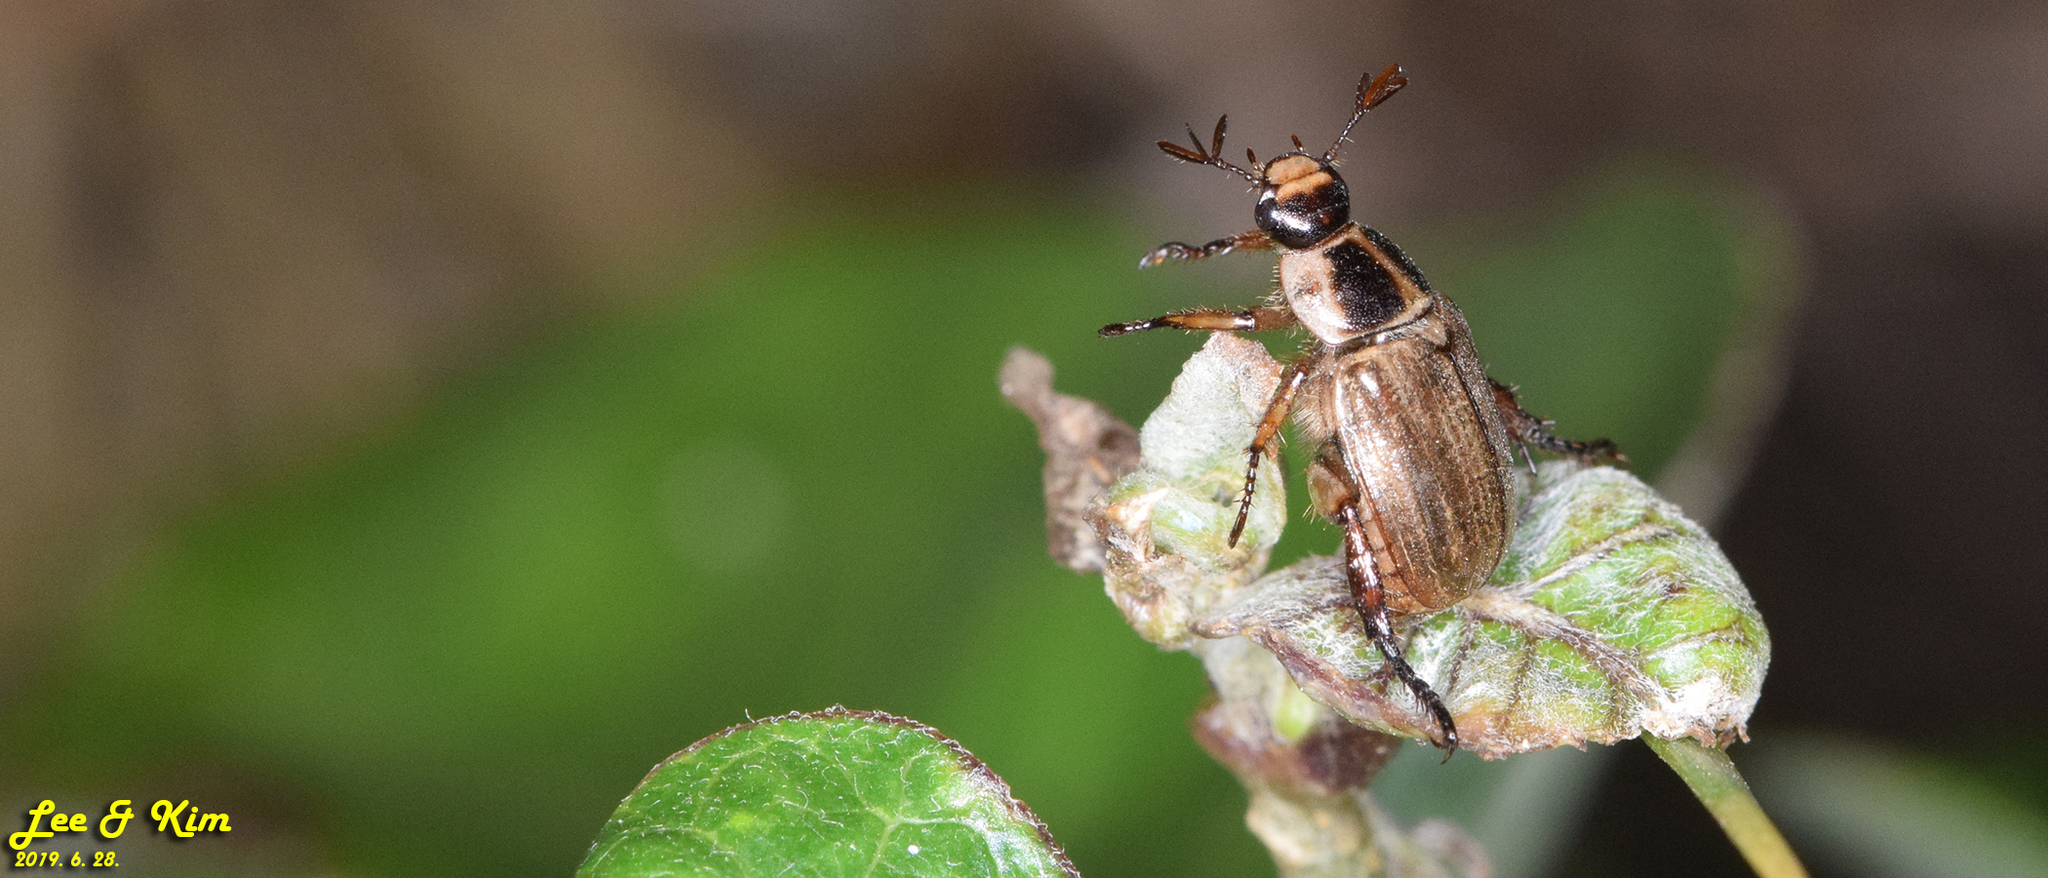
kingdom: Animalia
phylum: Arthropoda
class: Insecta
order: Coleoptera
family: Scarabaeidae
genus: Exomala
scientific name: Exomala orientalis
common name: Oriental beetle
